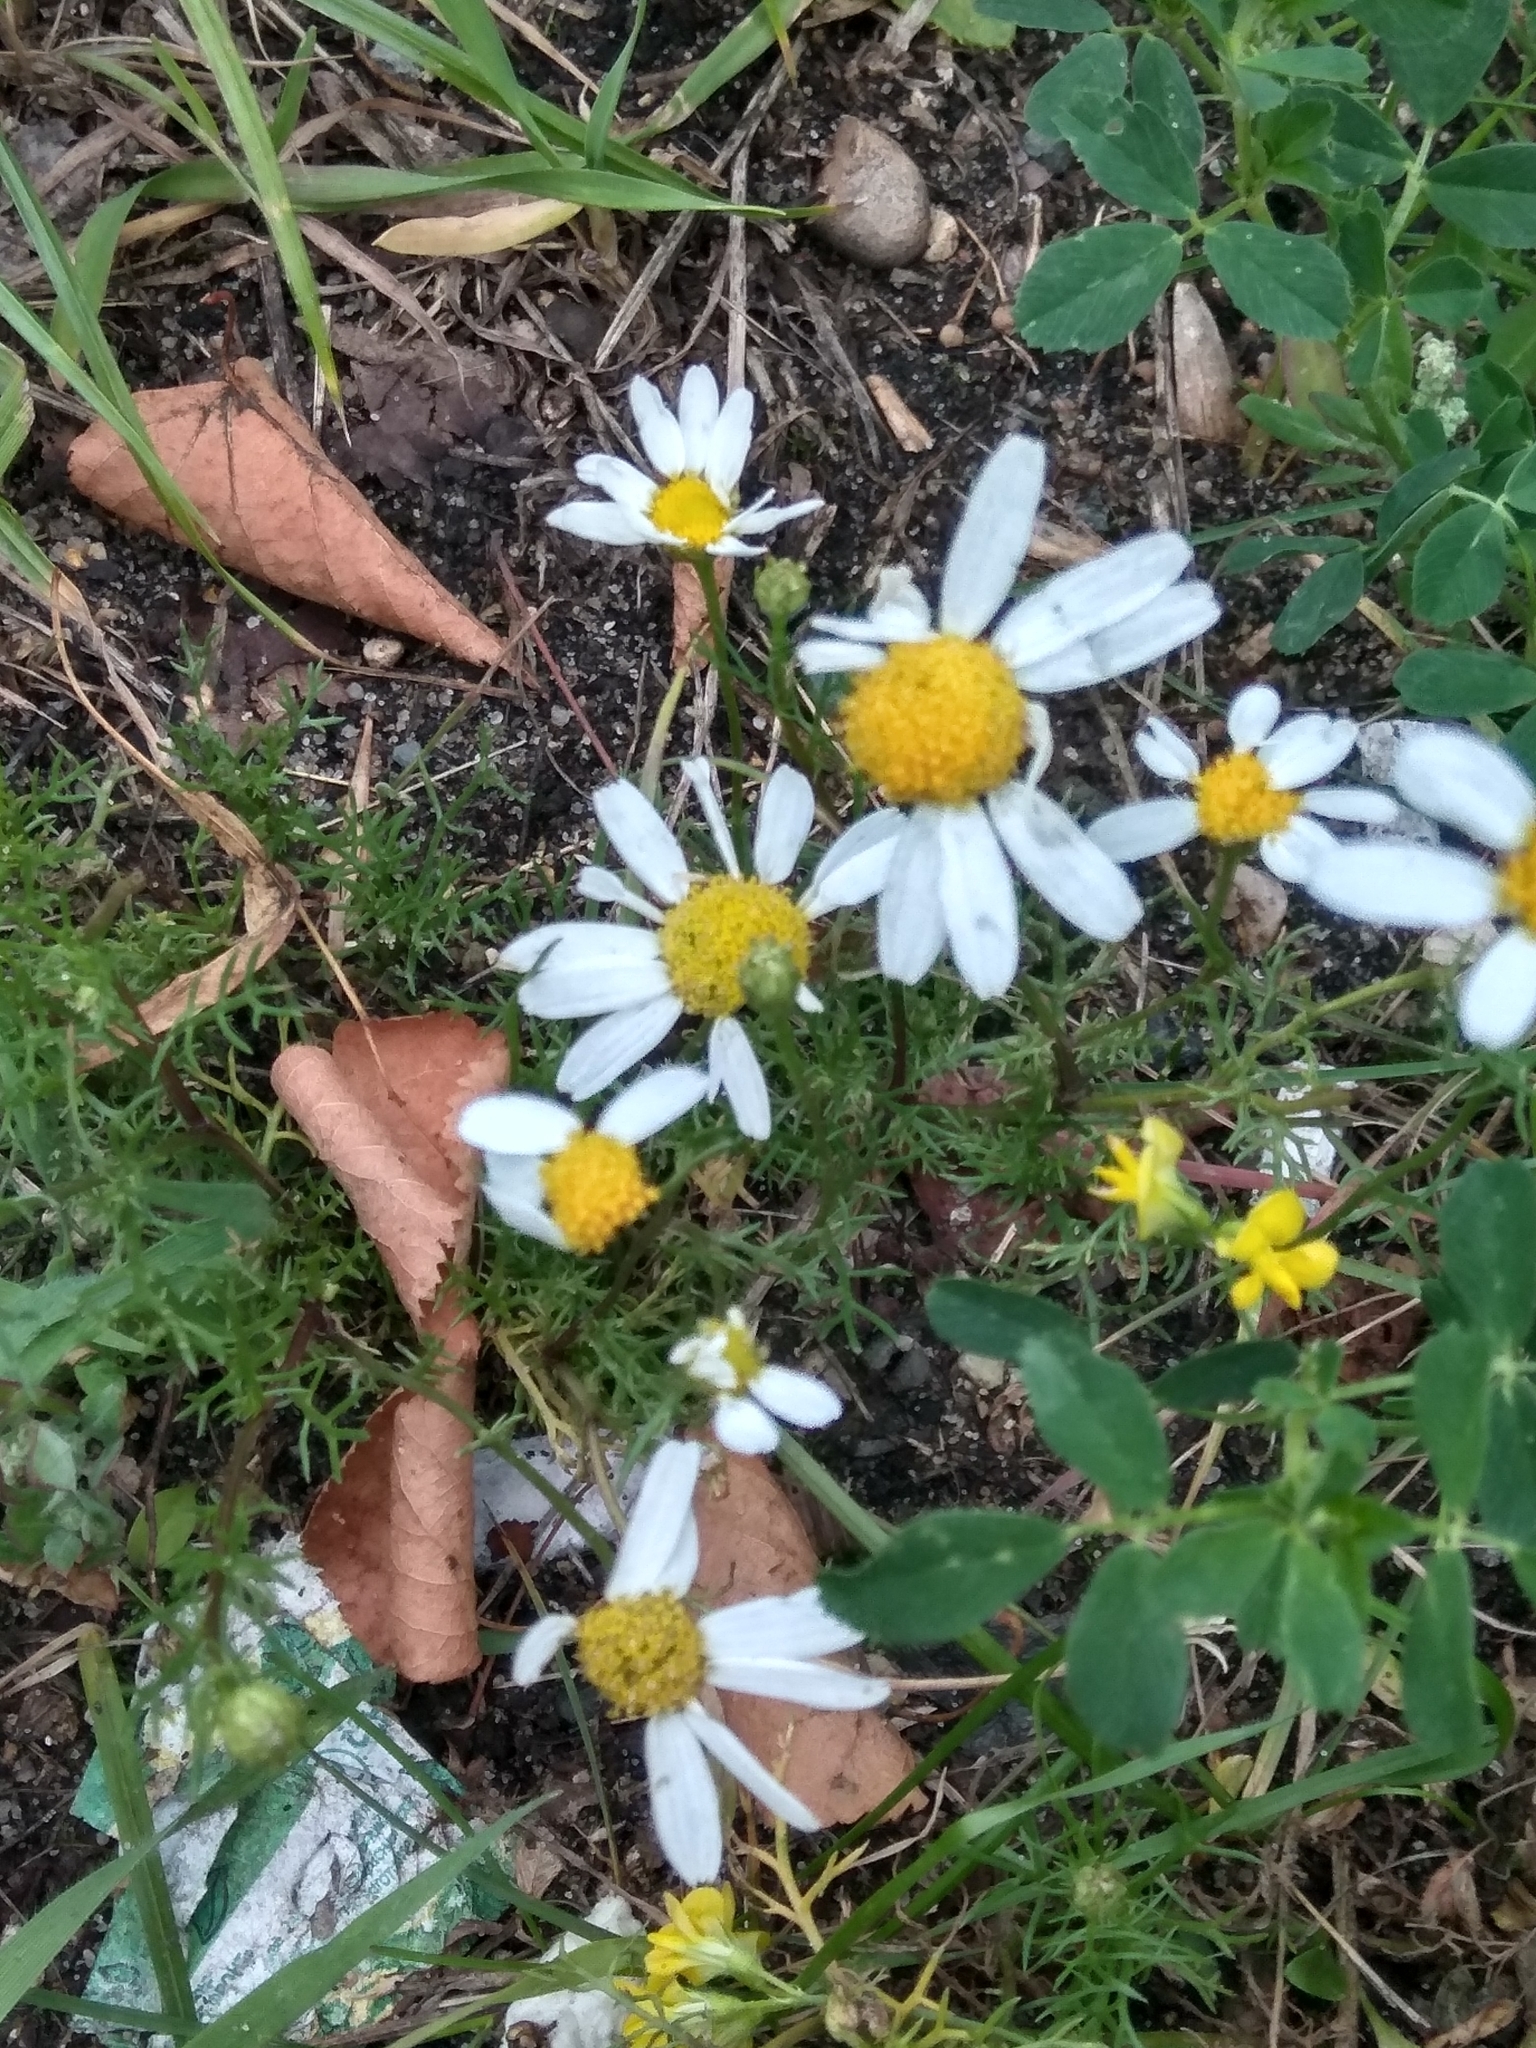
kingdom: Plantae
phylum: Tracheophyta
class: Magnoliopsida
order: Asterales
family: Asteraceae
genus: Tripleurospermum
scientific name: Tripleurospermum inodorum
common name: Scentless mayweed
